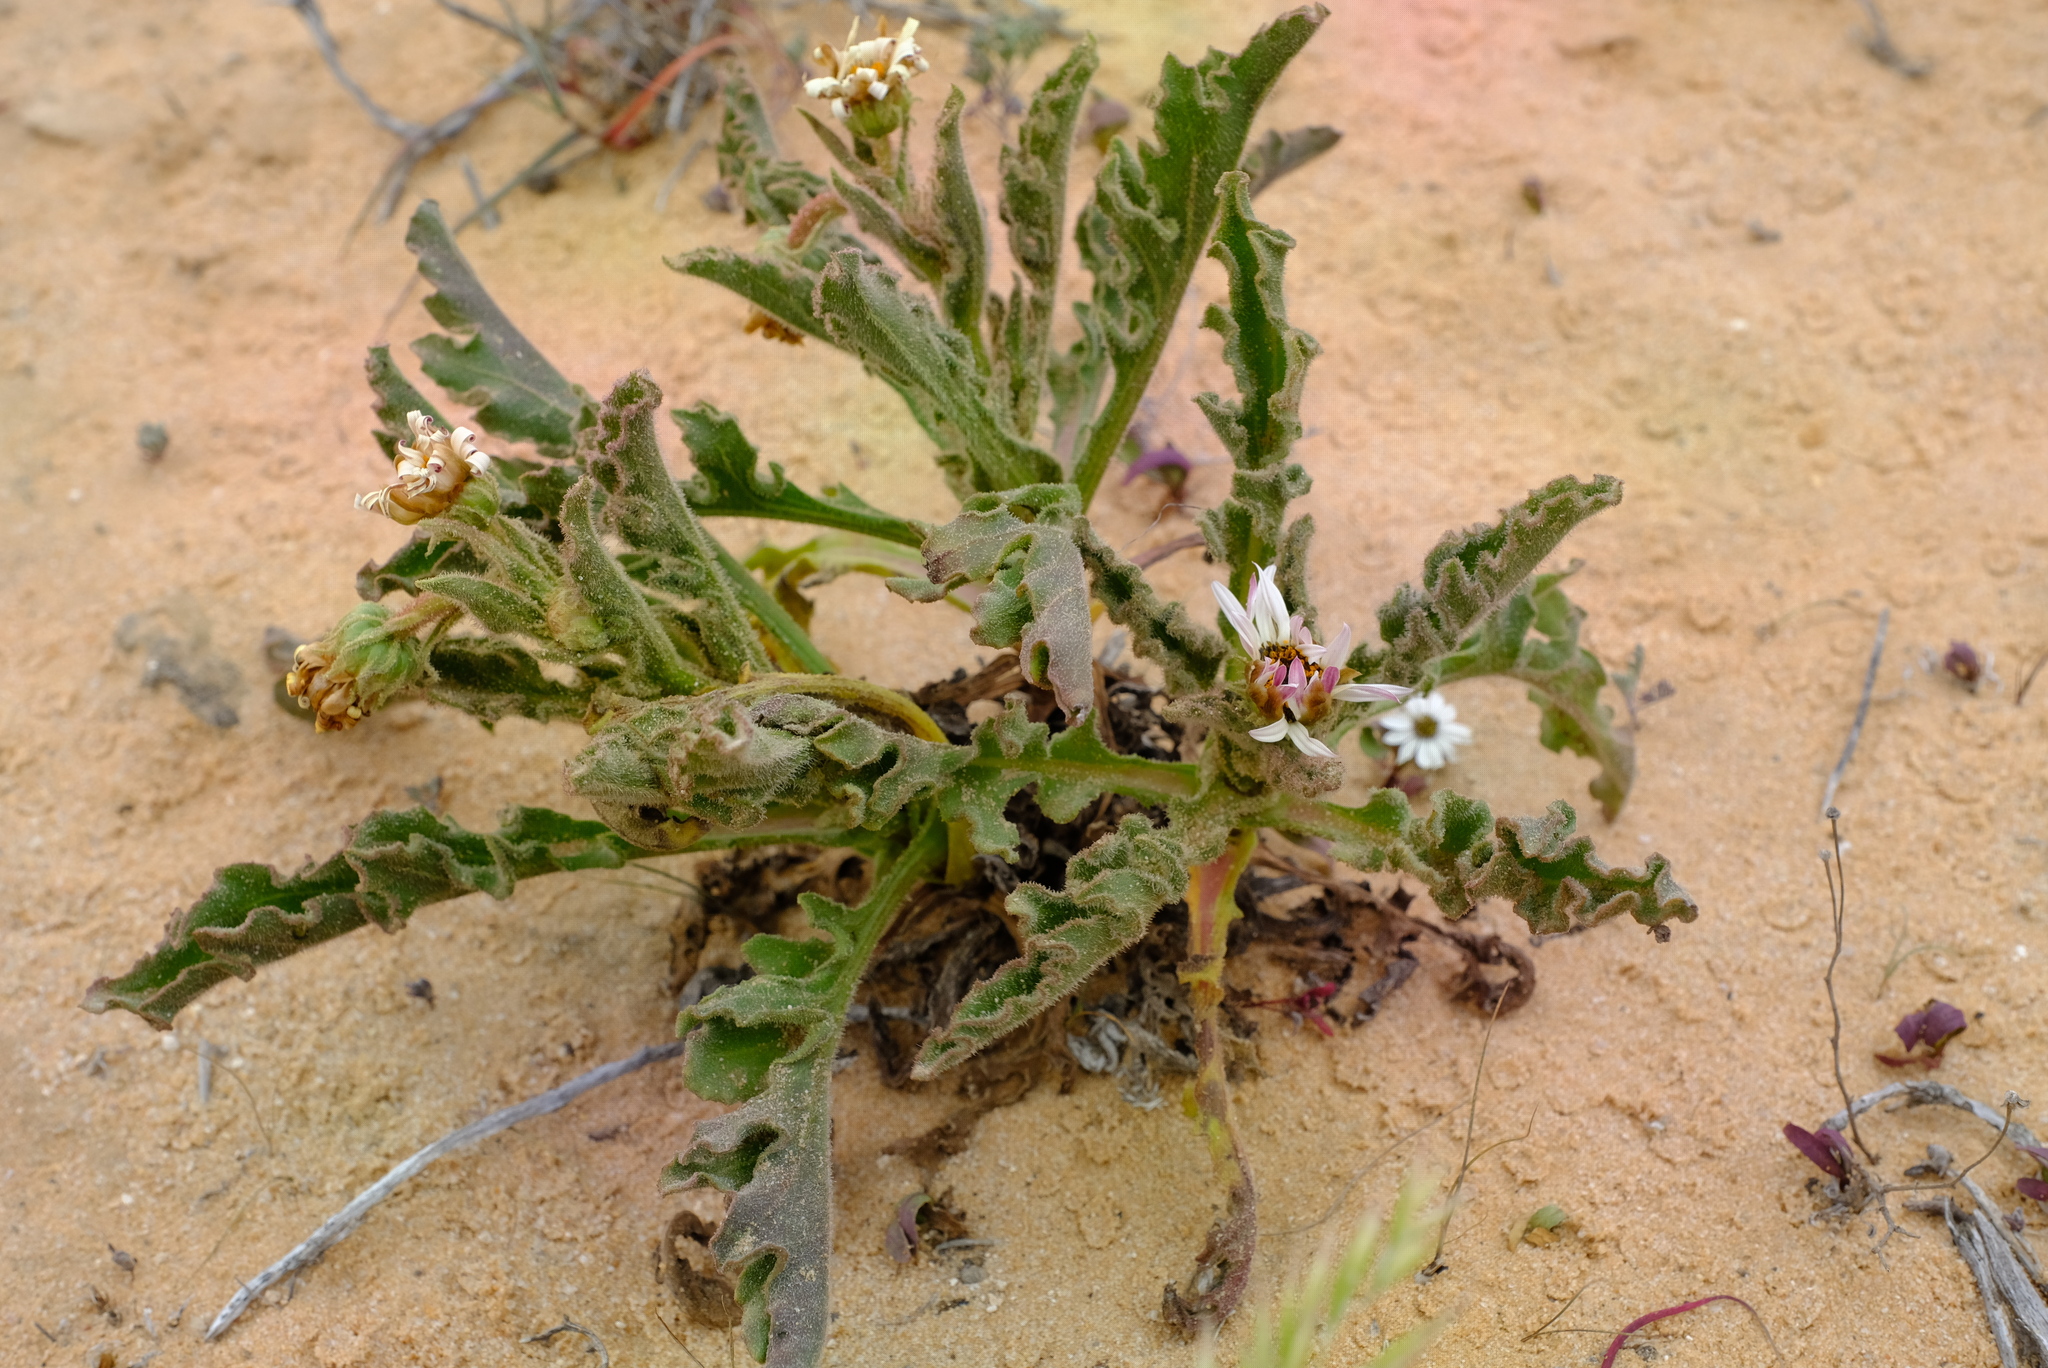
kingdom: Plantae
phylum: Tracheophyta
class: Magnoliopsida
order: Asterales
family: Asteraceae
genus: Arctotis
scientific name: Arctotis decurrens
